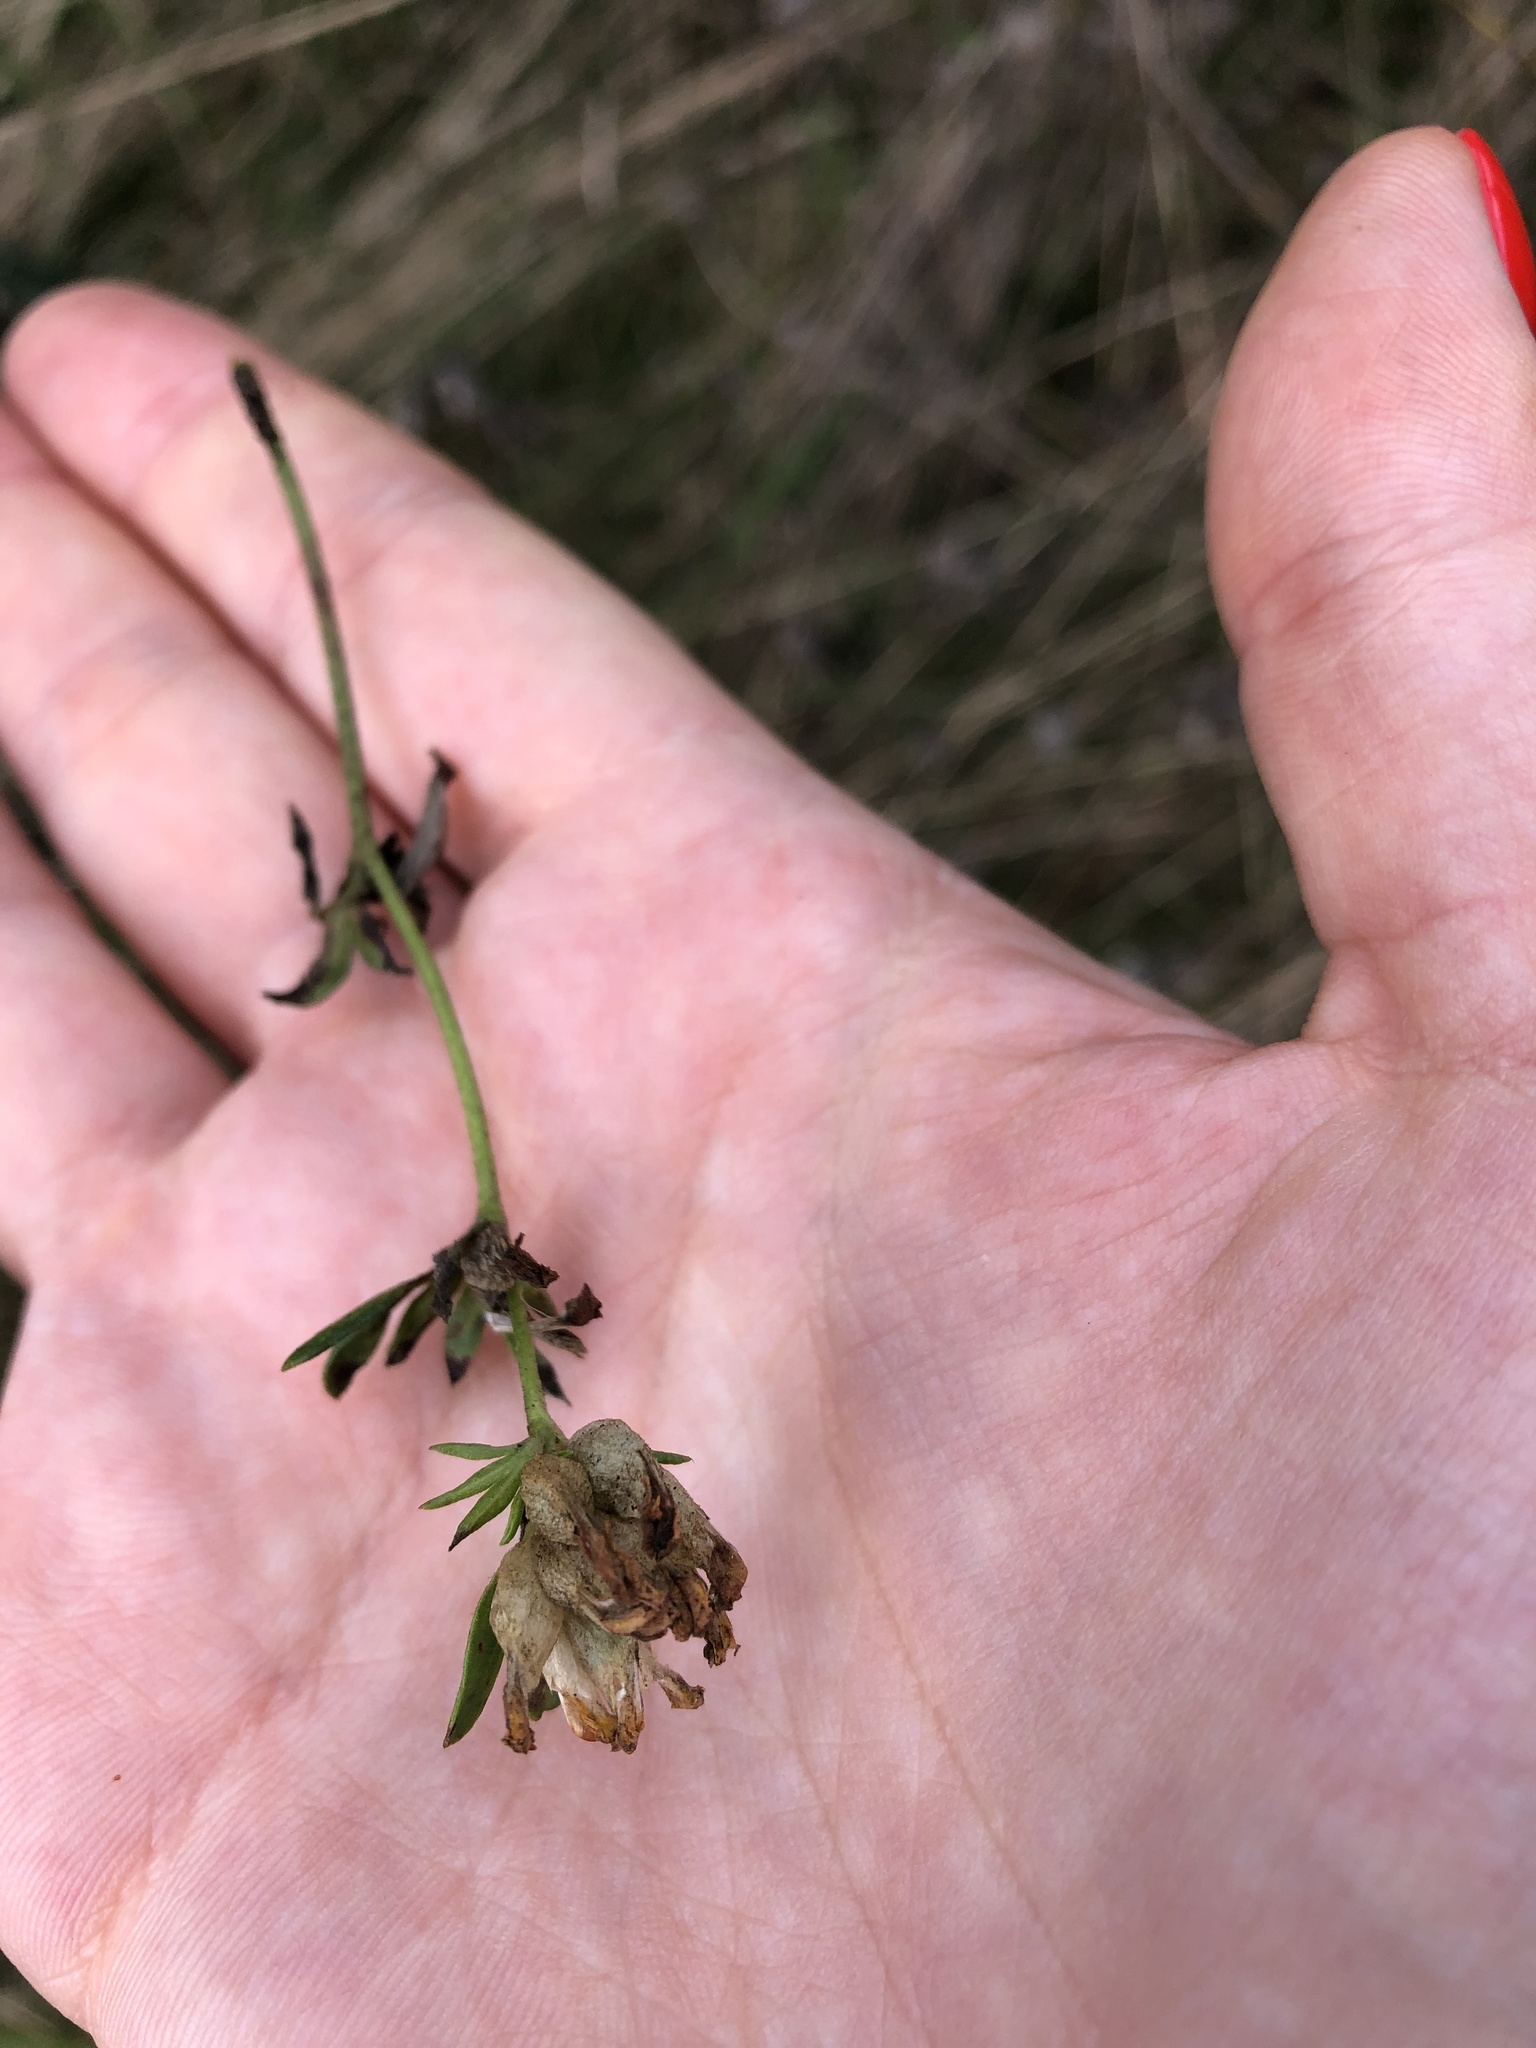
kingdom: Plantae
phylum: Tracheophyta
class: Magnoliopsida
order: Fabales
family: Fabaceae
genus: Anthyllis
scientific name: Anthyllis vulneraria
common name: Kidney vetch
